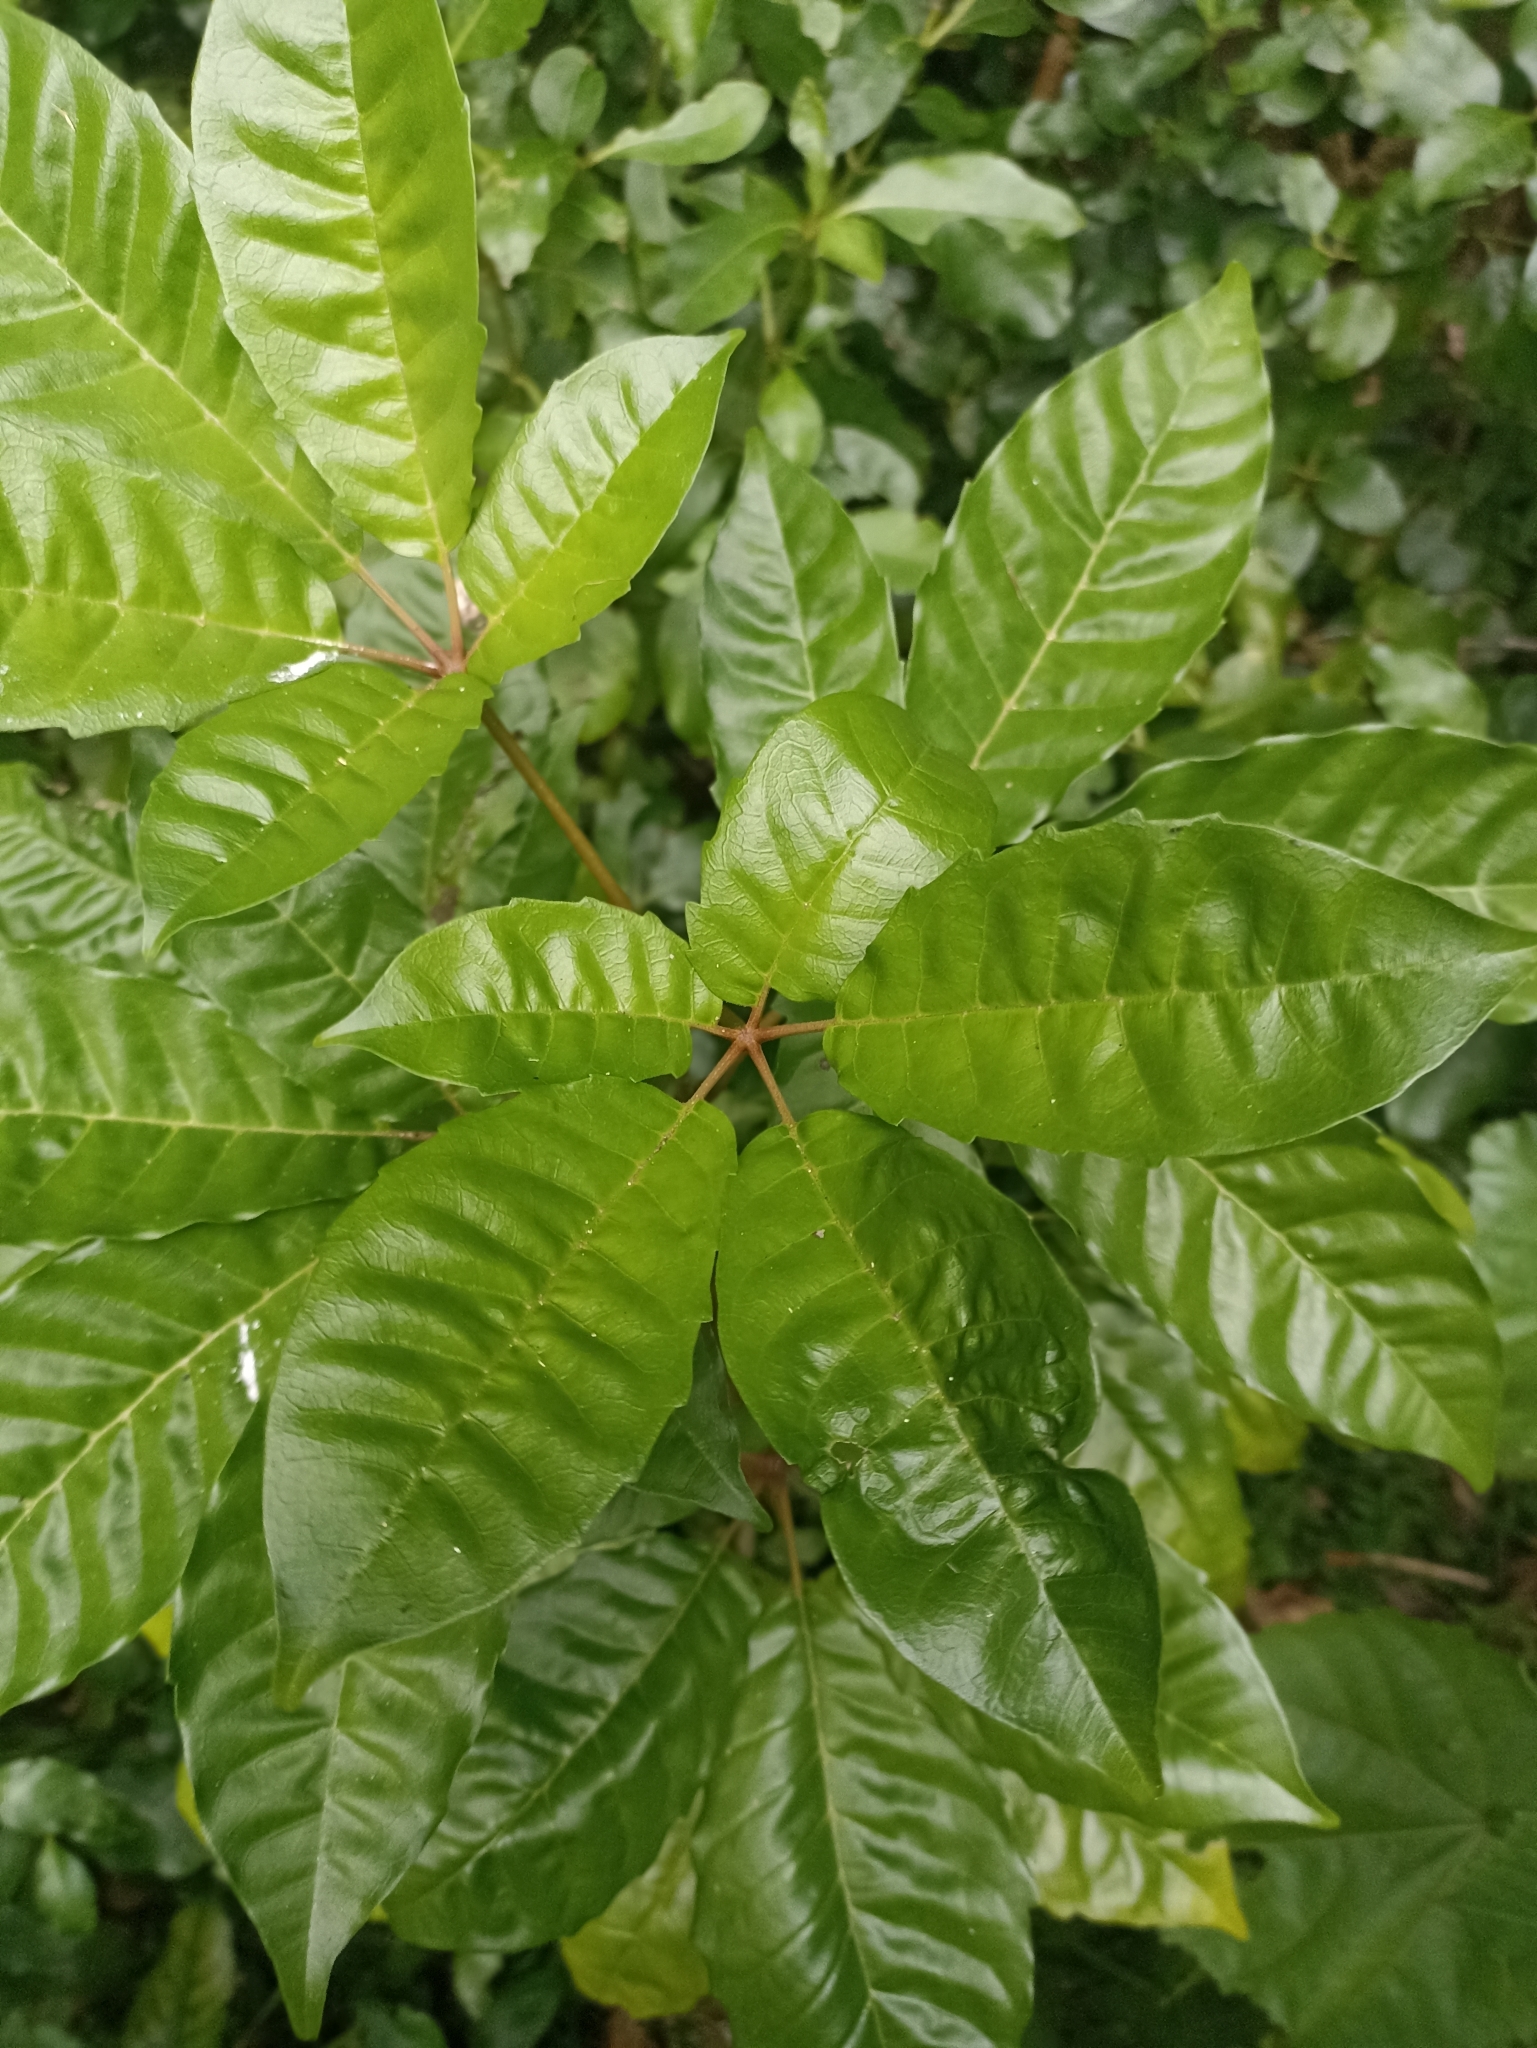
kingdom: Plantae
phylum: Tracheophyta
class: Magnoliopsida
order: Lamiales
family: Lamiaceae
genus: Vitex
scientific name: Vitex lucens
